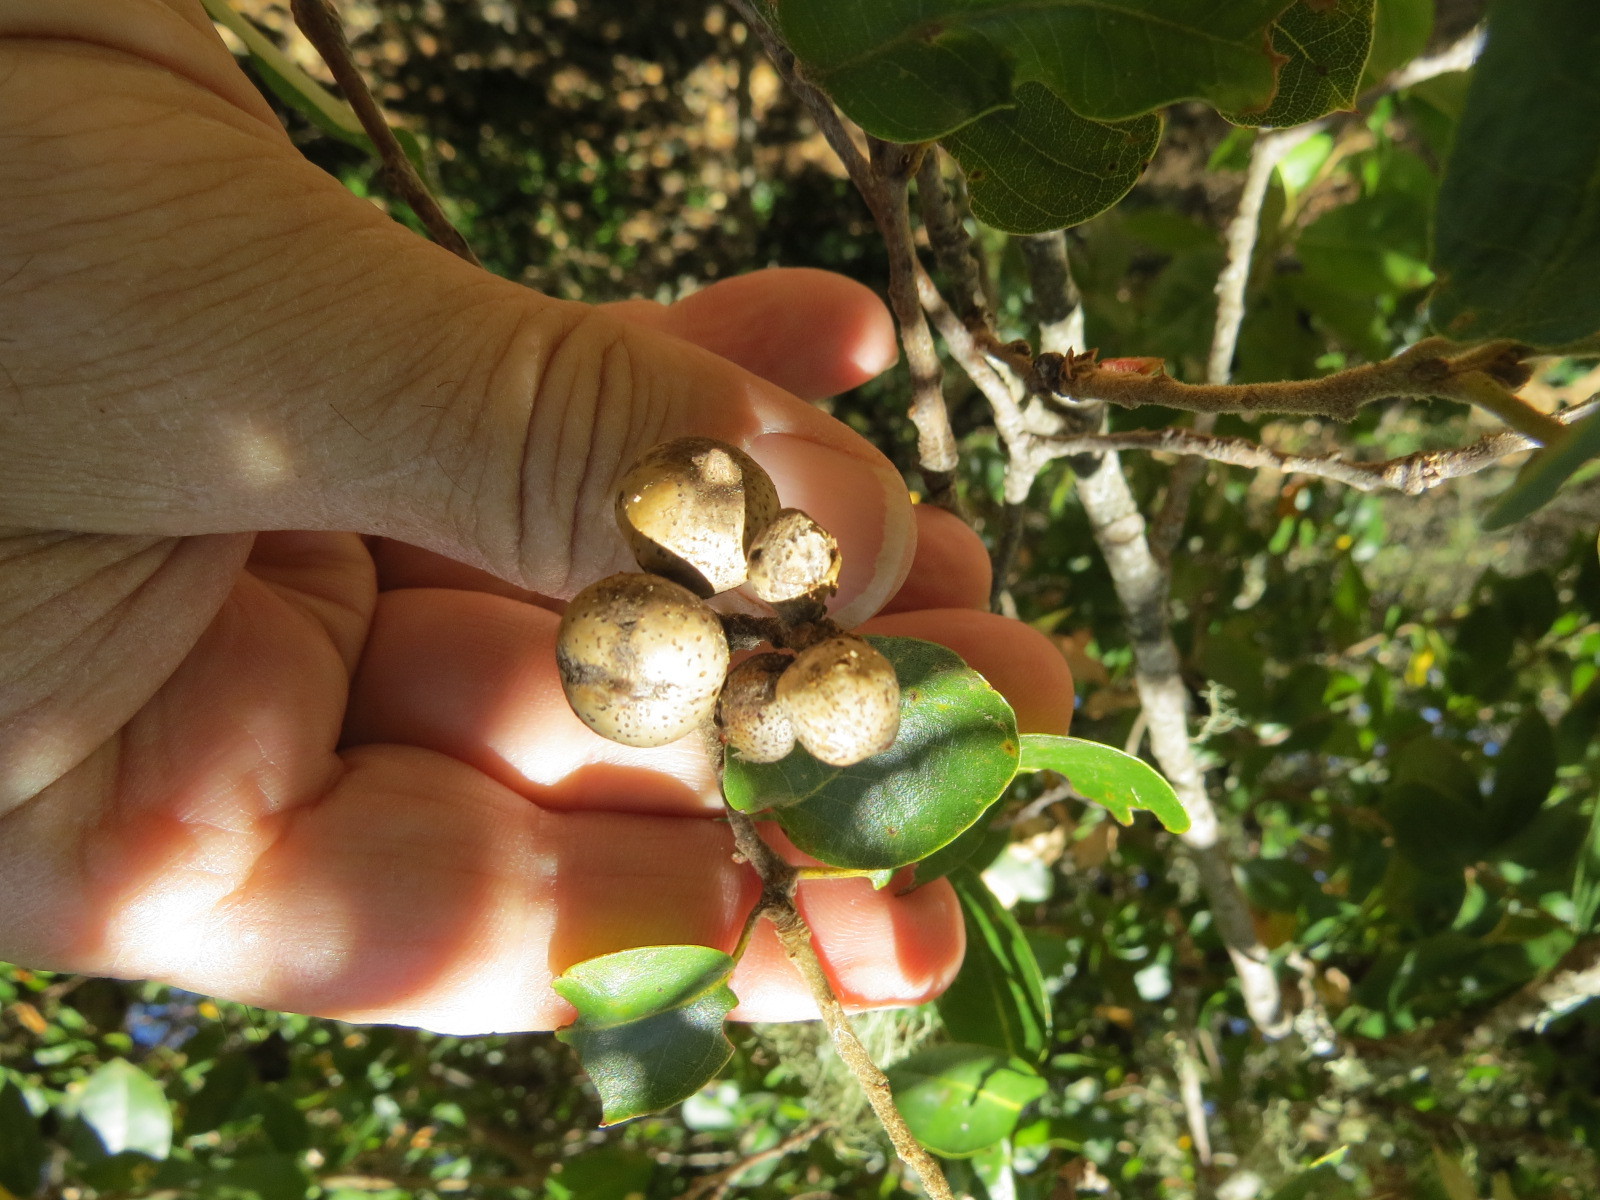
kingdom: Animalia
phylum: Arthropoda
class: Insecta
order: Hymenoptera
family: Cynipidae
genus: Heteroecus
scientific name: Heteroecus
